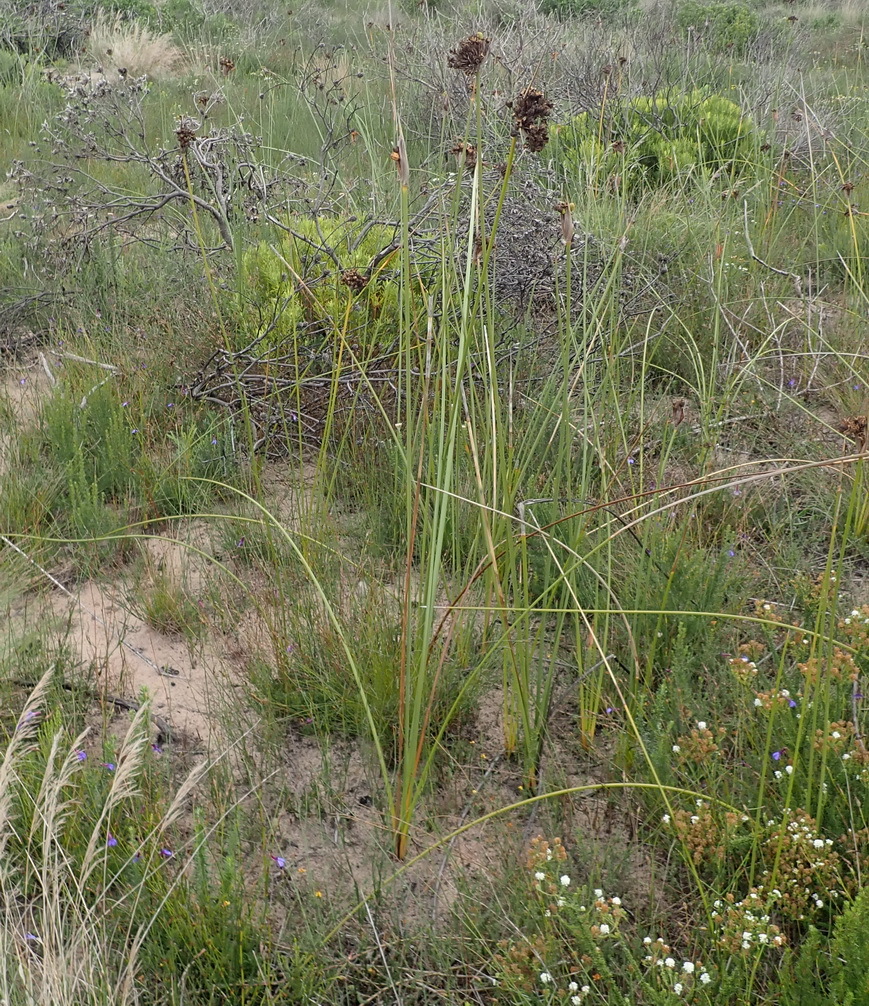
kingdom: Plantae
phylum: Tracheophyta
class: Liliopsida
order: Asparagales
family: Iridaceae
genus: Bobartia
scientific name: Bobartia robusta
